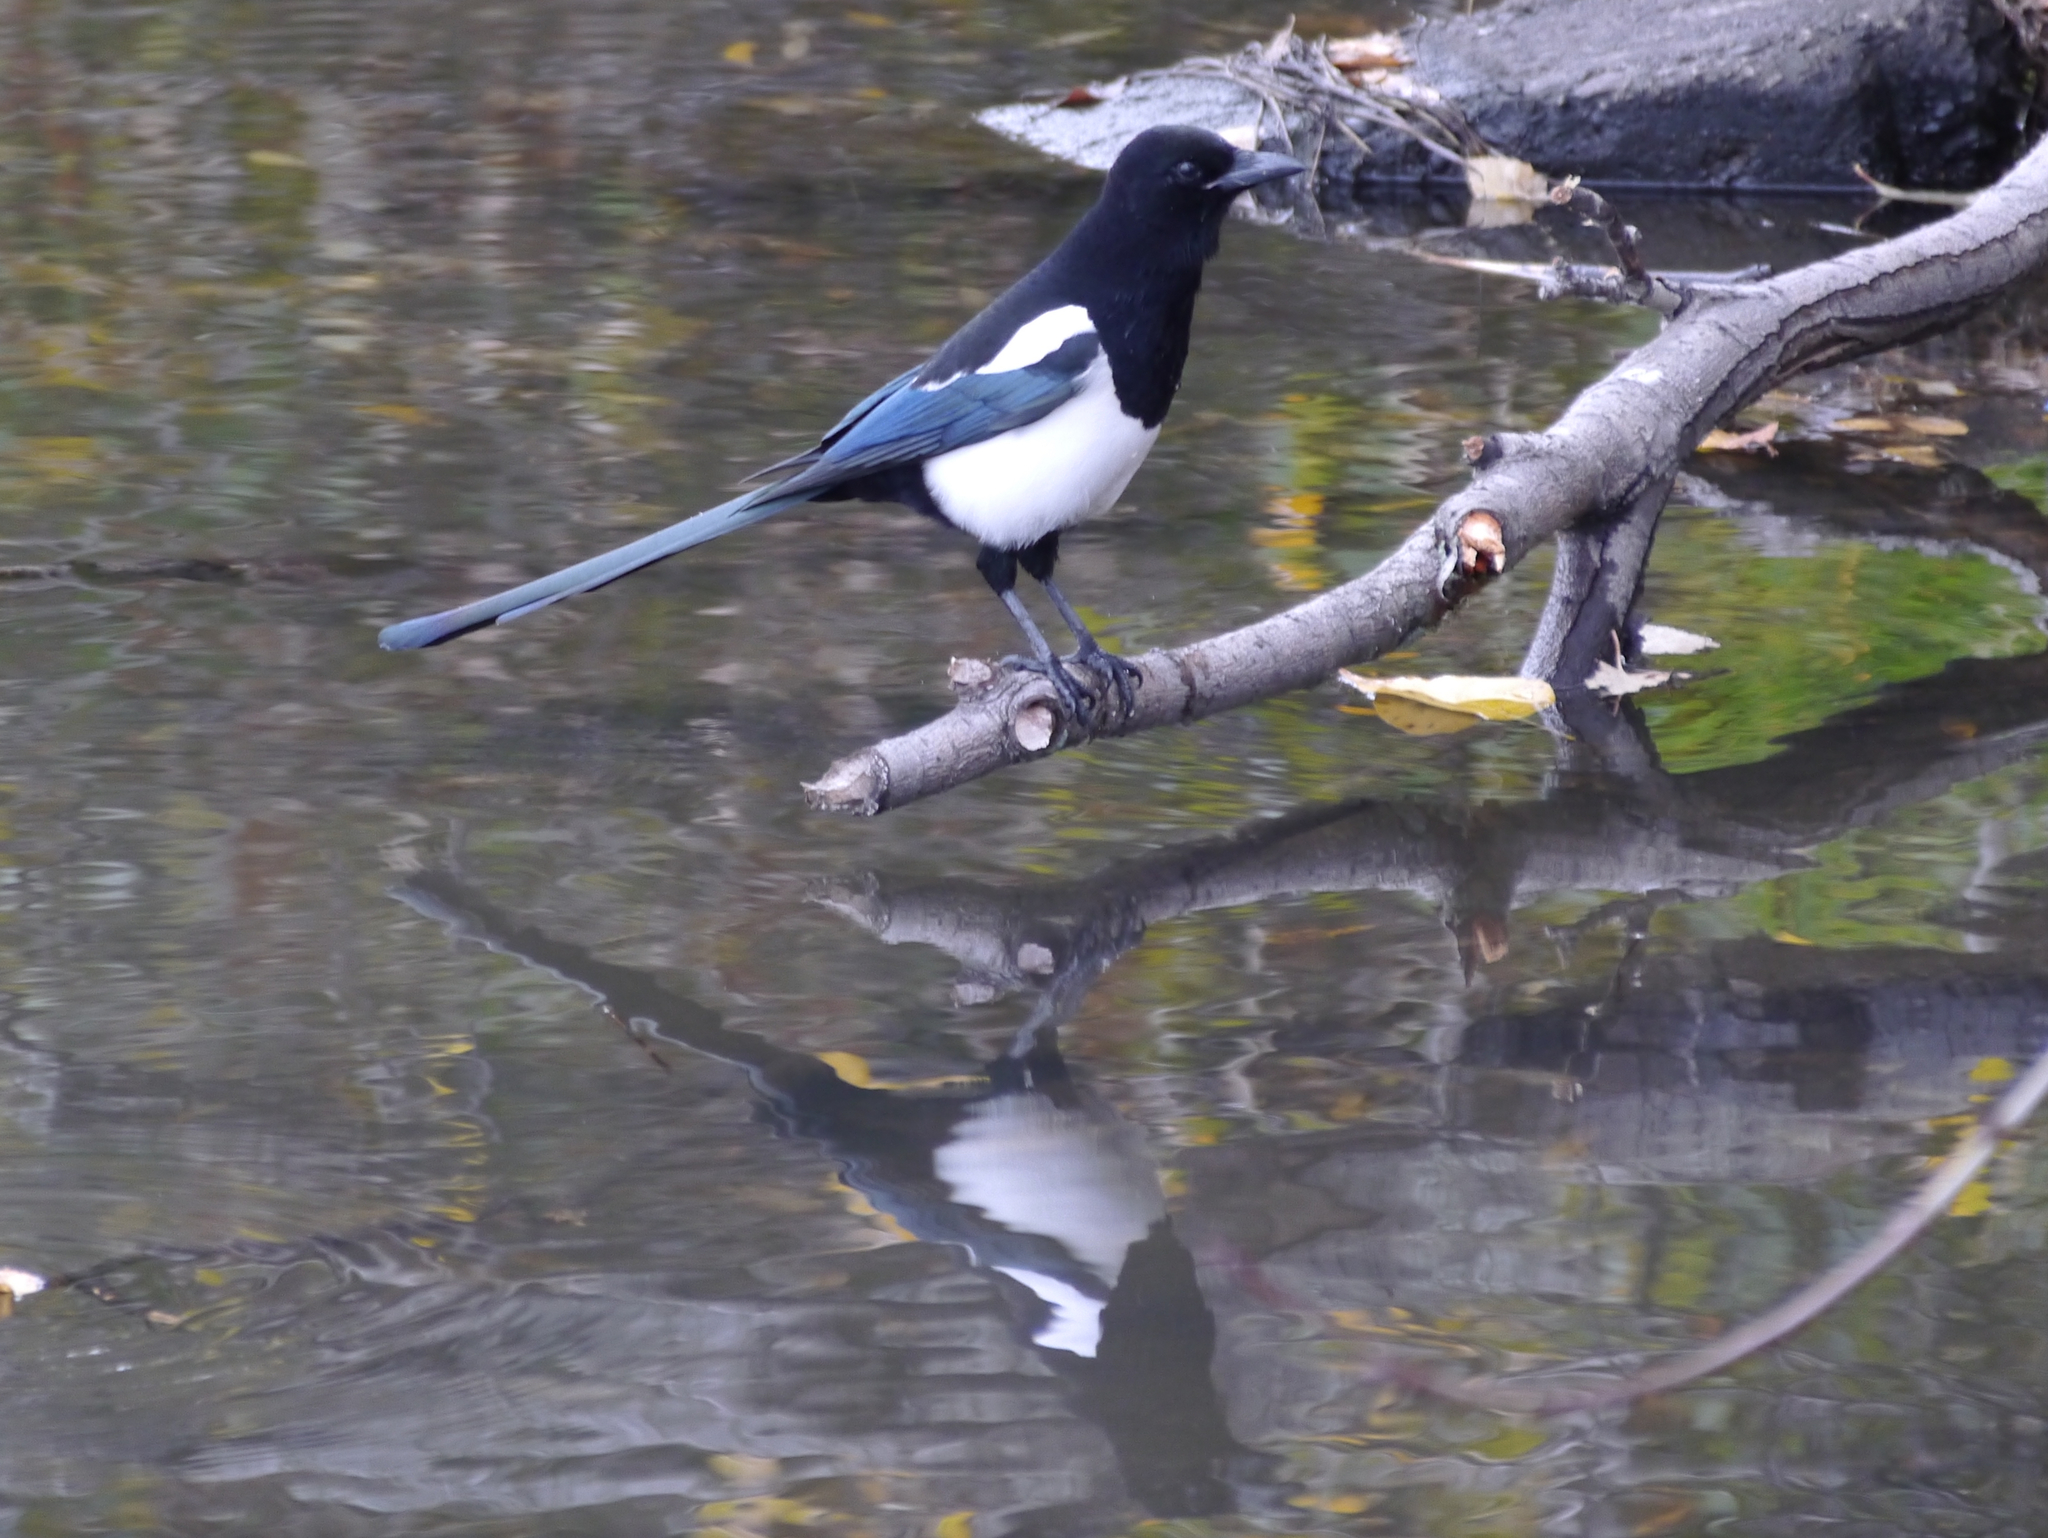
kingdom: Animalia
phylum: Chordata
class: Aves
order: Passeriformes
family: Corvidae
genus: Pica
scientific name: Pica hudsonia
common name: Black-billed magpie
